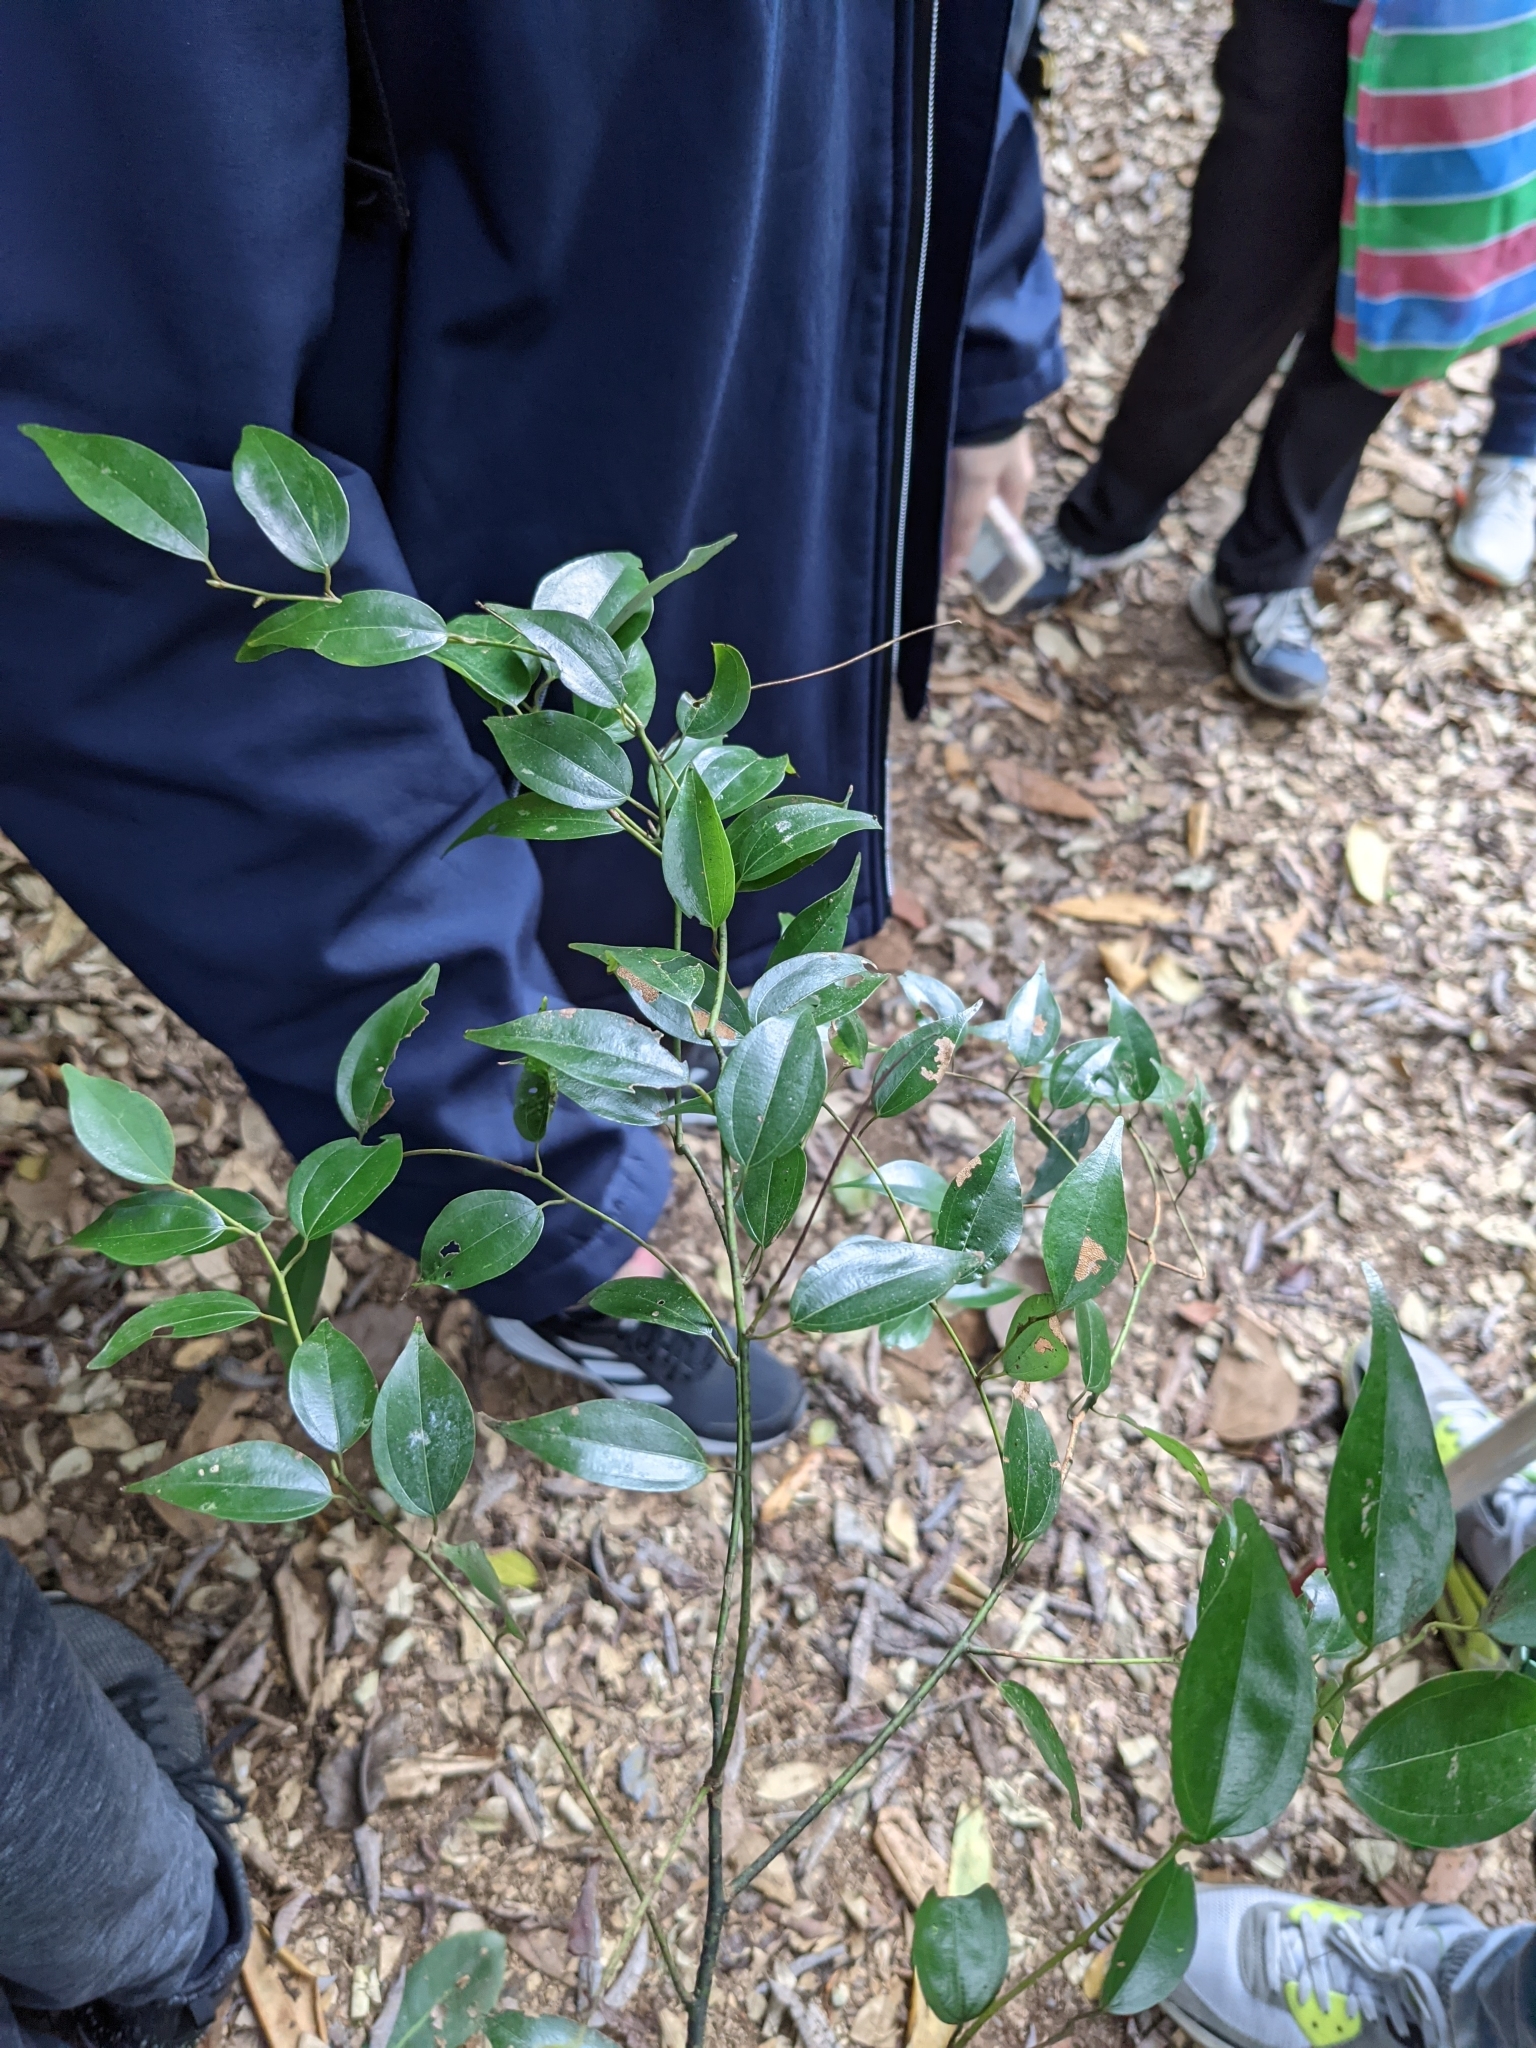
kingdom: Plantae
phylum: Tracheophyta
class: Magnoliopsida
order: Laurales
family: Lauraceae
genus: Lindera
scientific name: Lindera aggregata
